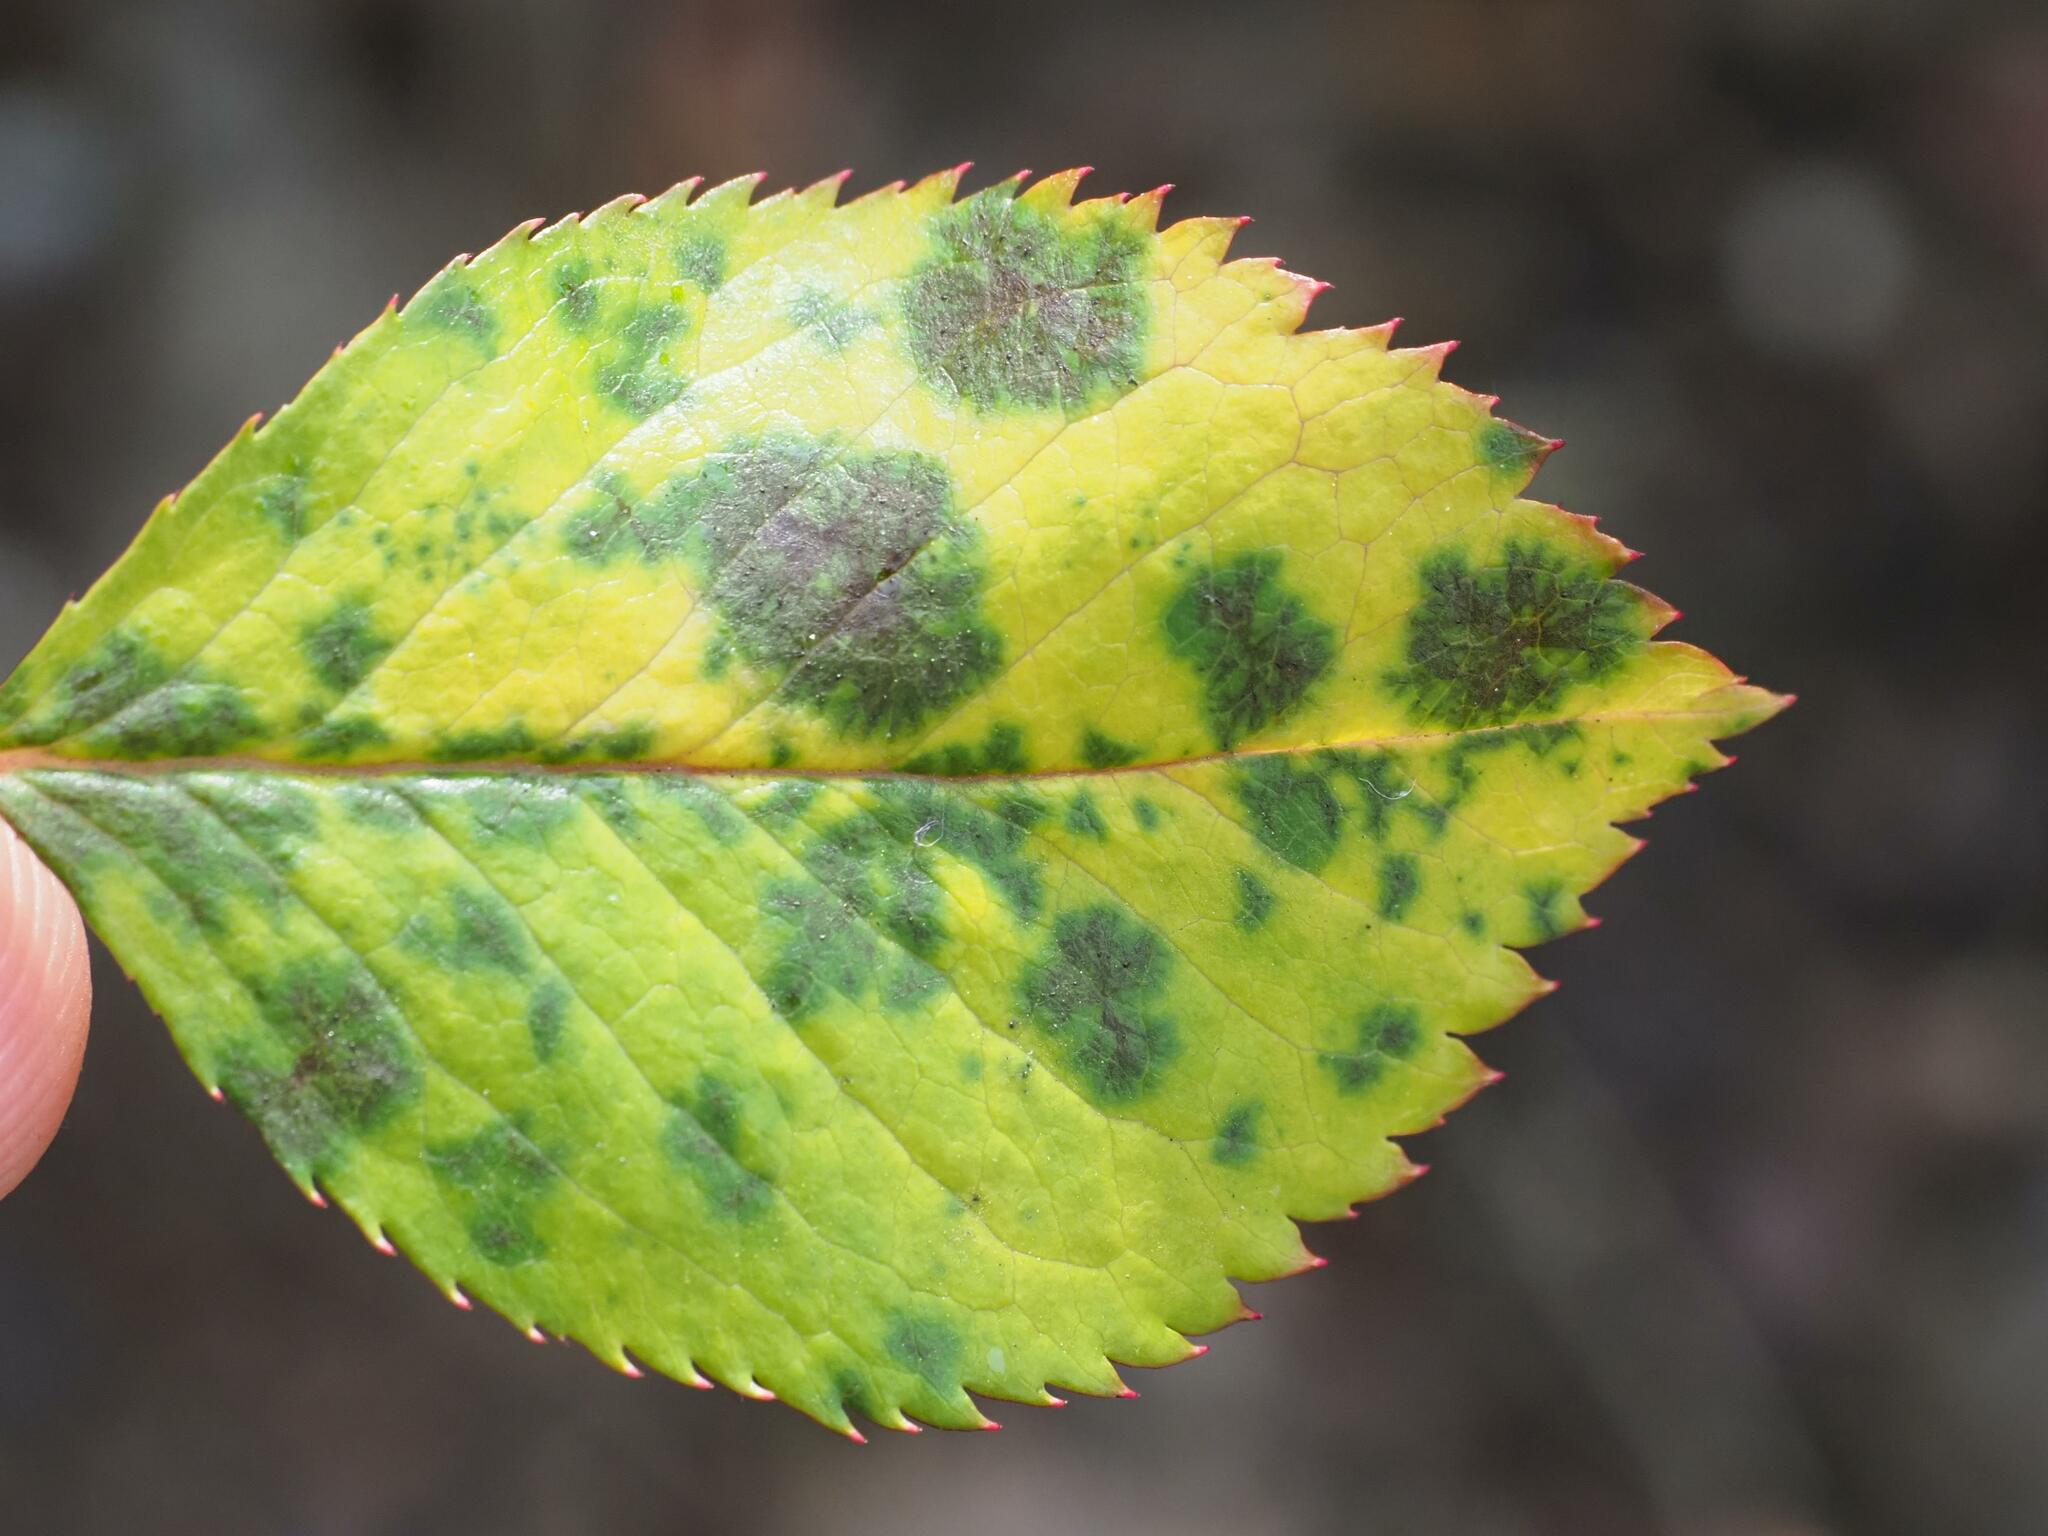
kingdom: Fungi
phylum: Ascomycota
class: Leotiomycetes
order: Helotiales
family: Drepanopezizaceae
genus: Diplocarpon
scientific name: Diplocarpon rosae
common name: Rose black-spot
